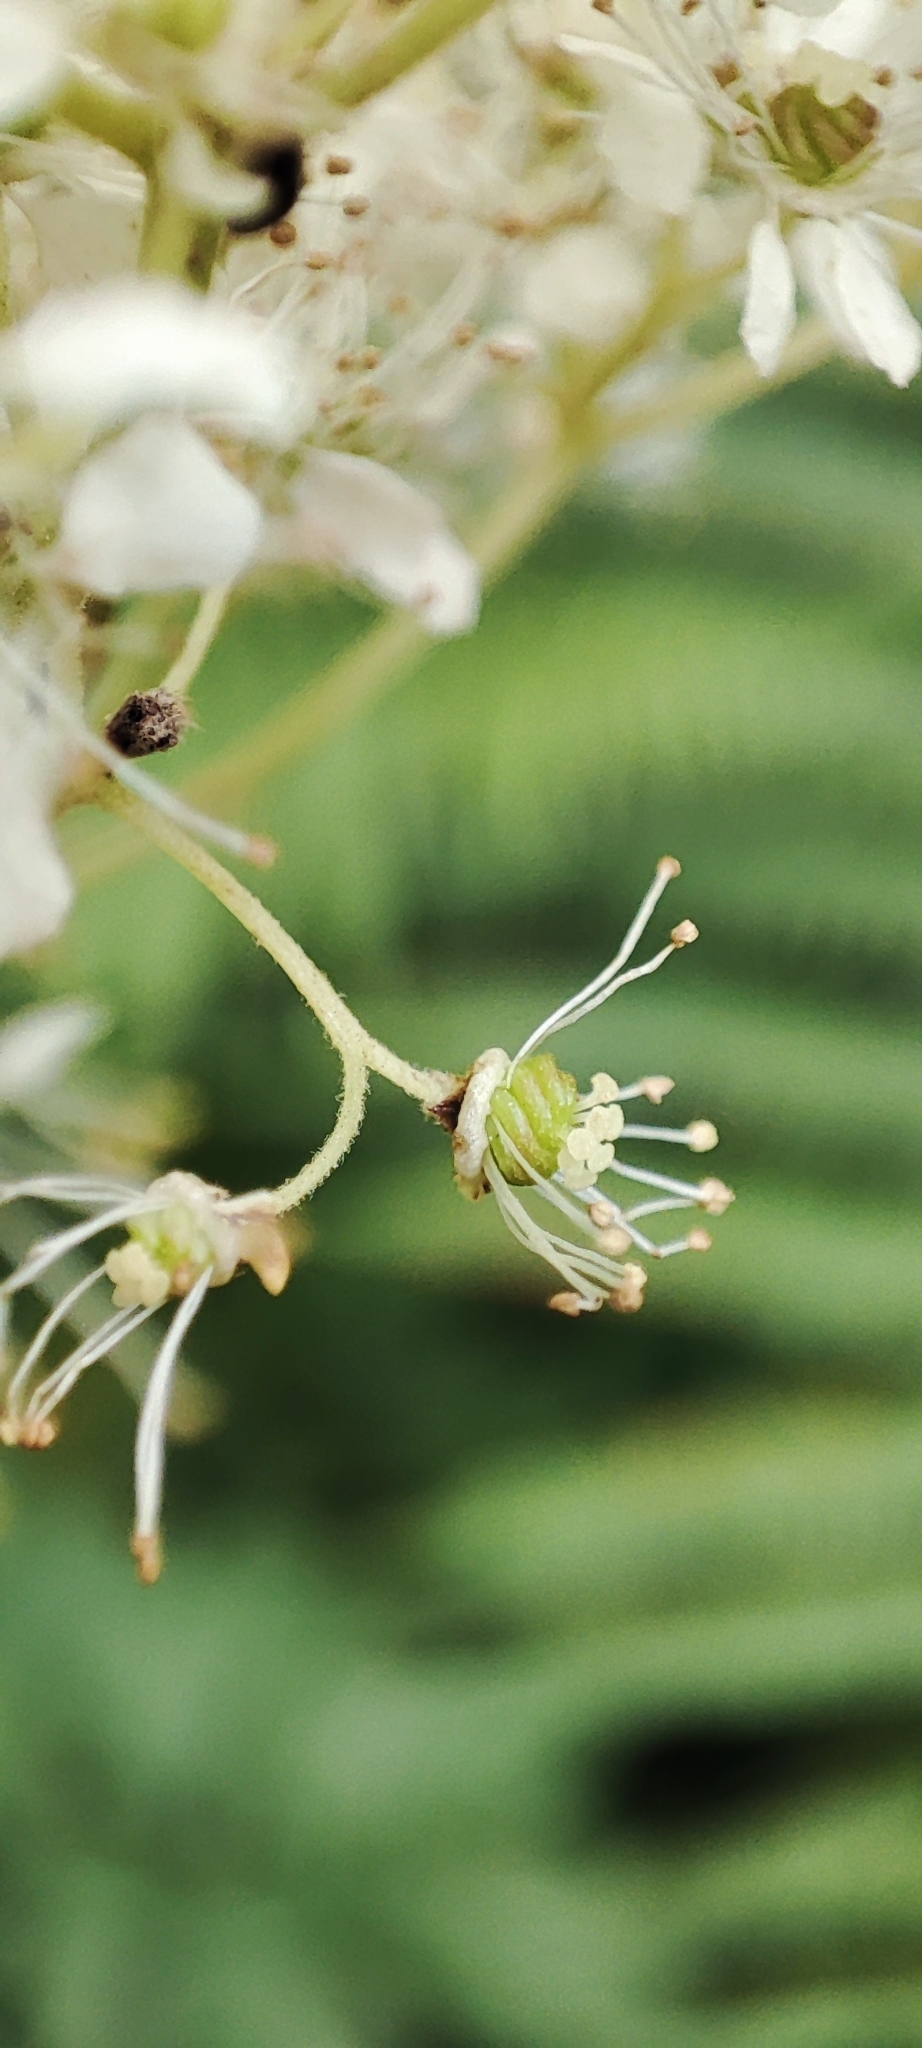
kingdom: Plantae
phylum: Tracheophyta
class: Magnoliopsida
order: Rosales
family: Rosaceae
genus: Filipendula
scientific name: Filipendula ulmaria
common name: Meadowsweet
